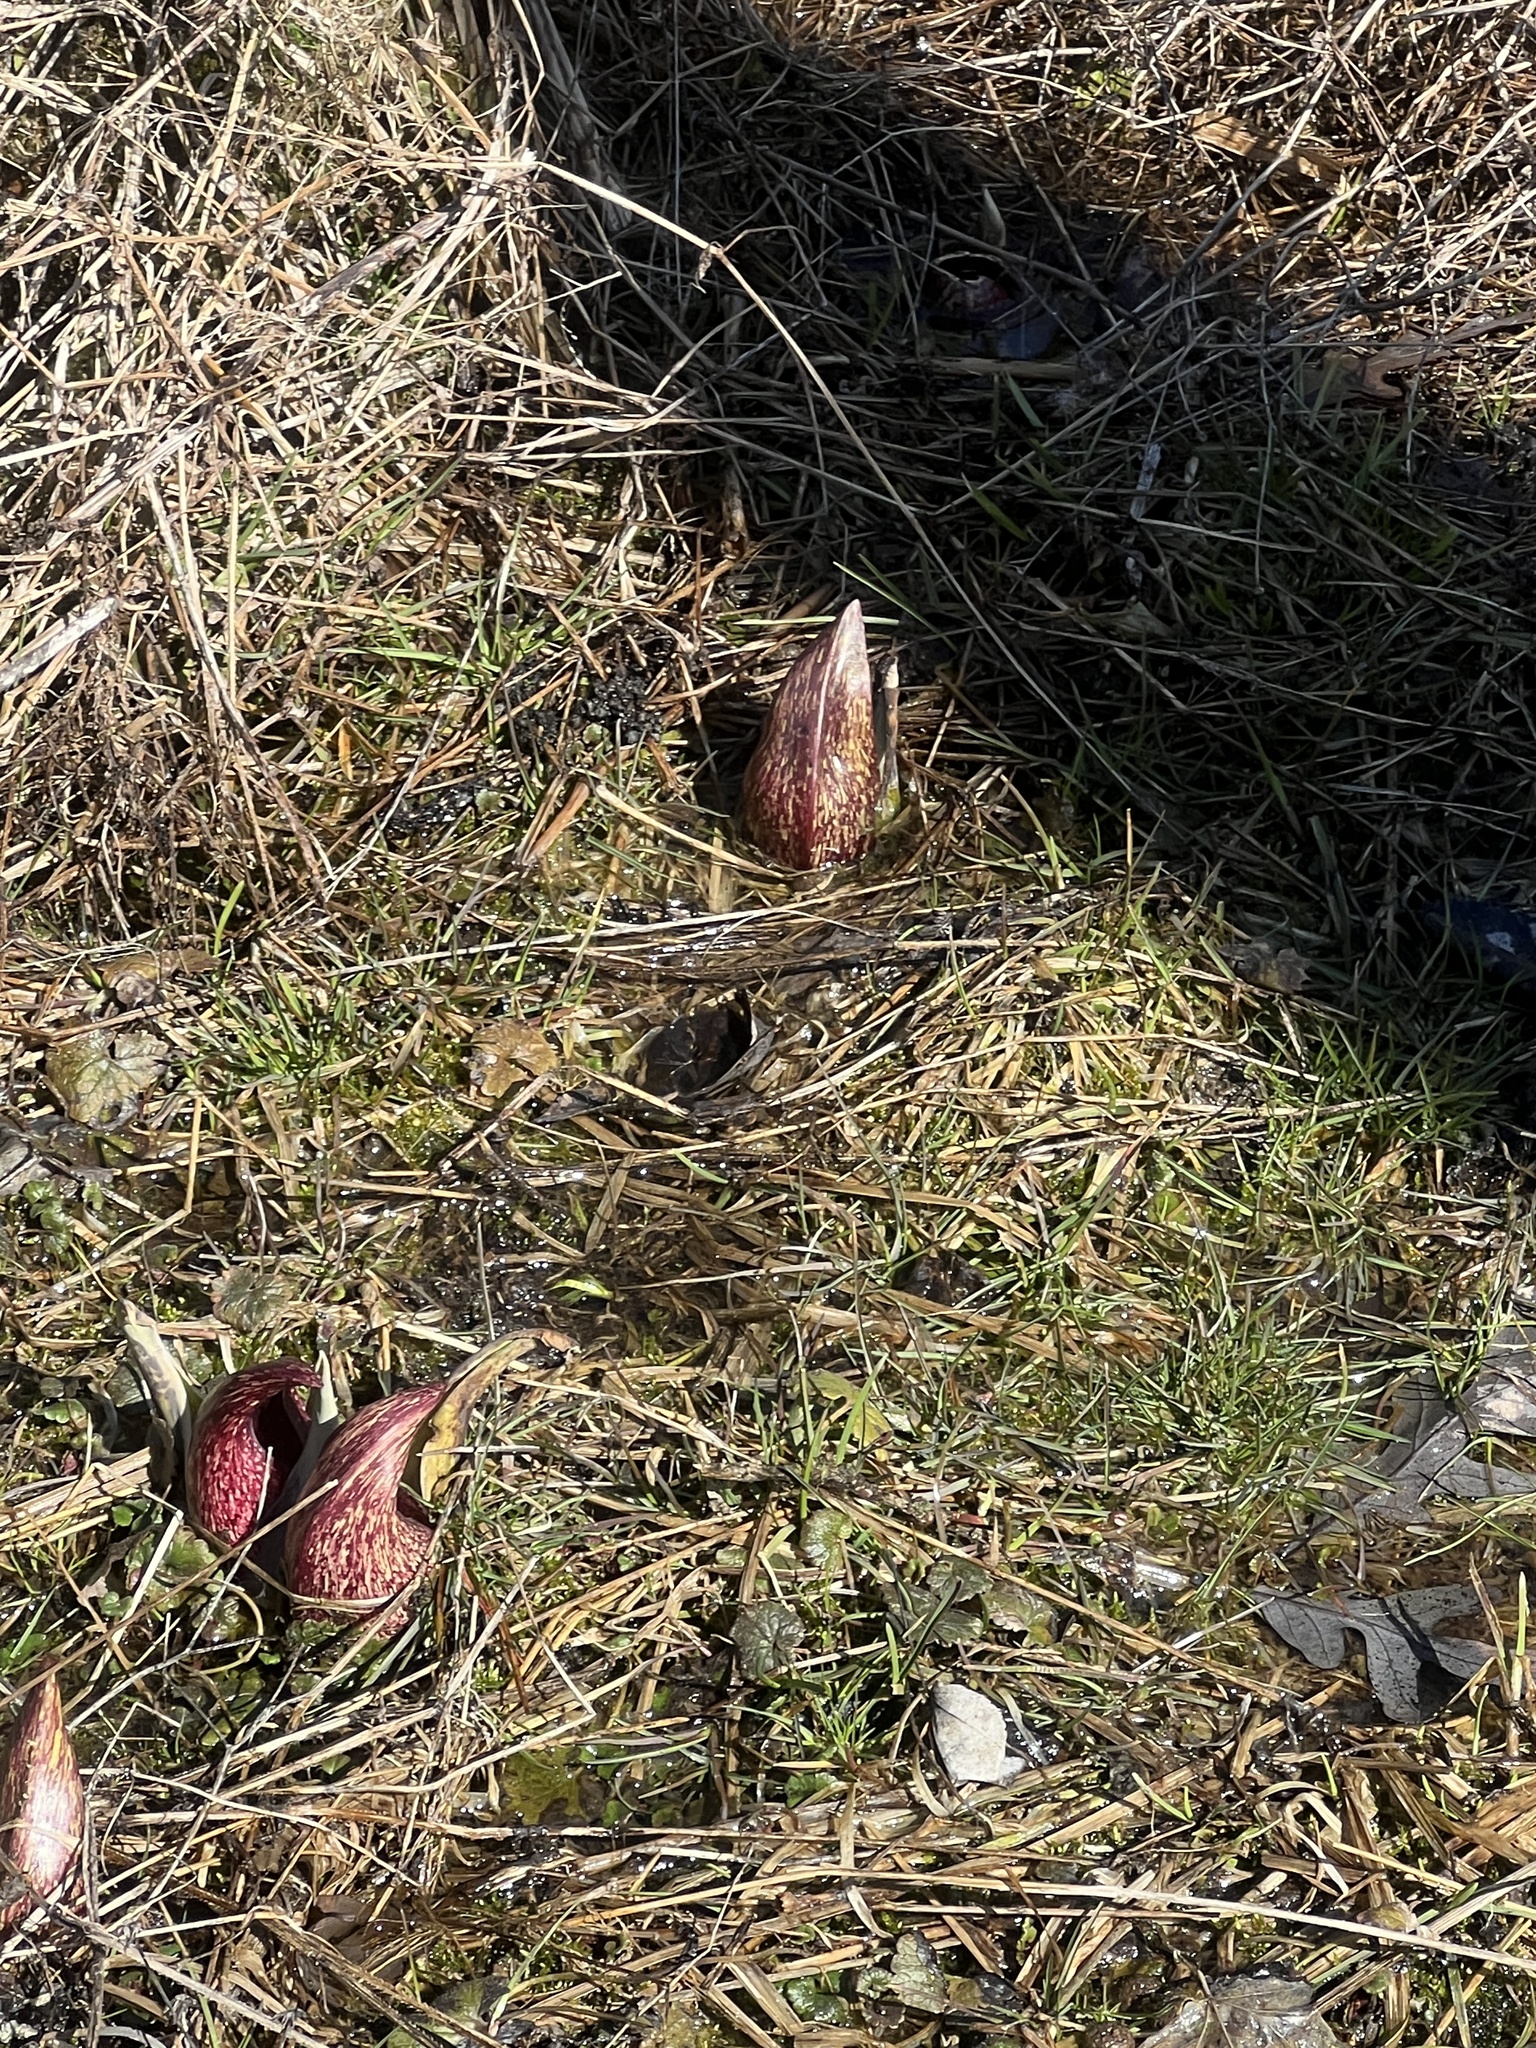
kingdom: Plantae
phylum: Tracheophyta
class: Liliopsida
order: Alismatales
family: Araceae
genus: Symplocarpus
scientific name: Symplocarpus foetidus
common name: Eastern skunk cabbage
